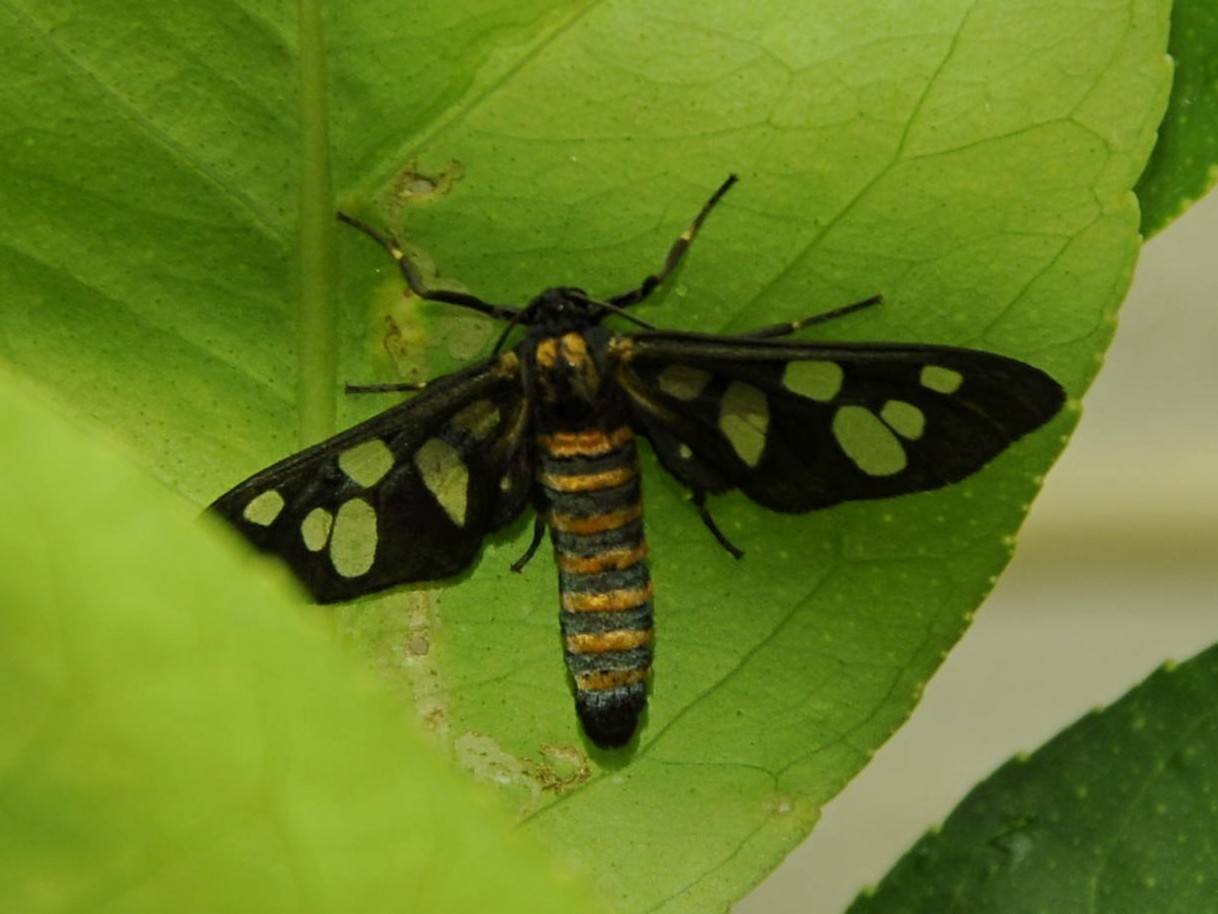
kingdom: Animalia
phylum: Arthropoda
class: Insecta
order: Lepidoptera
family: Erebidae
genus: Amata
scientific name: Amata passalis
